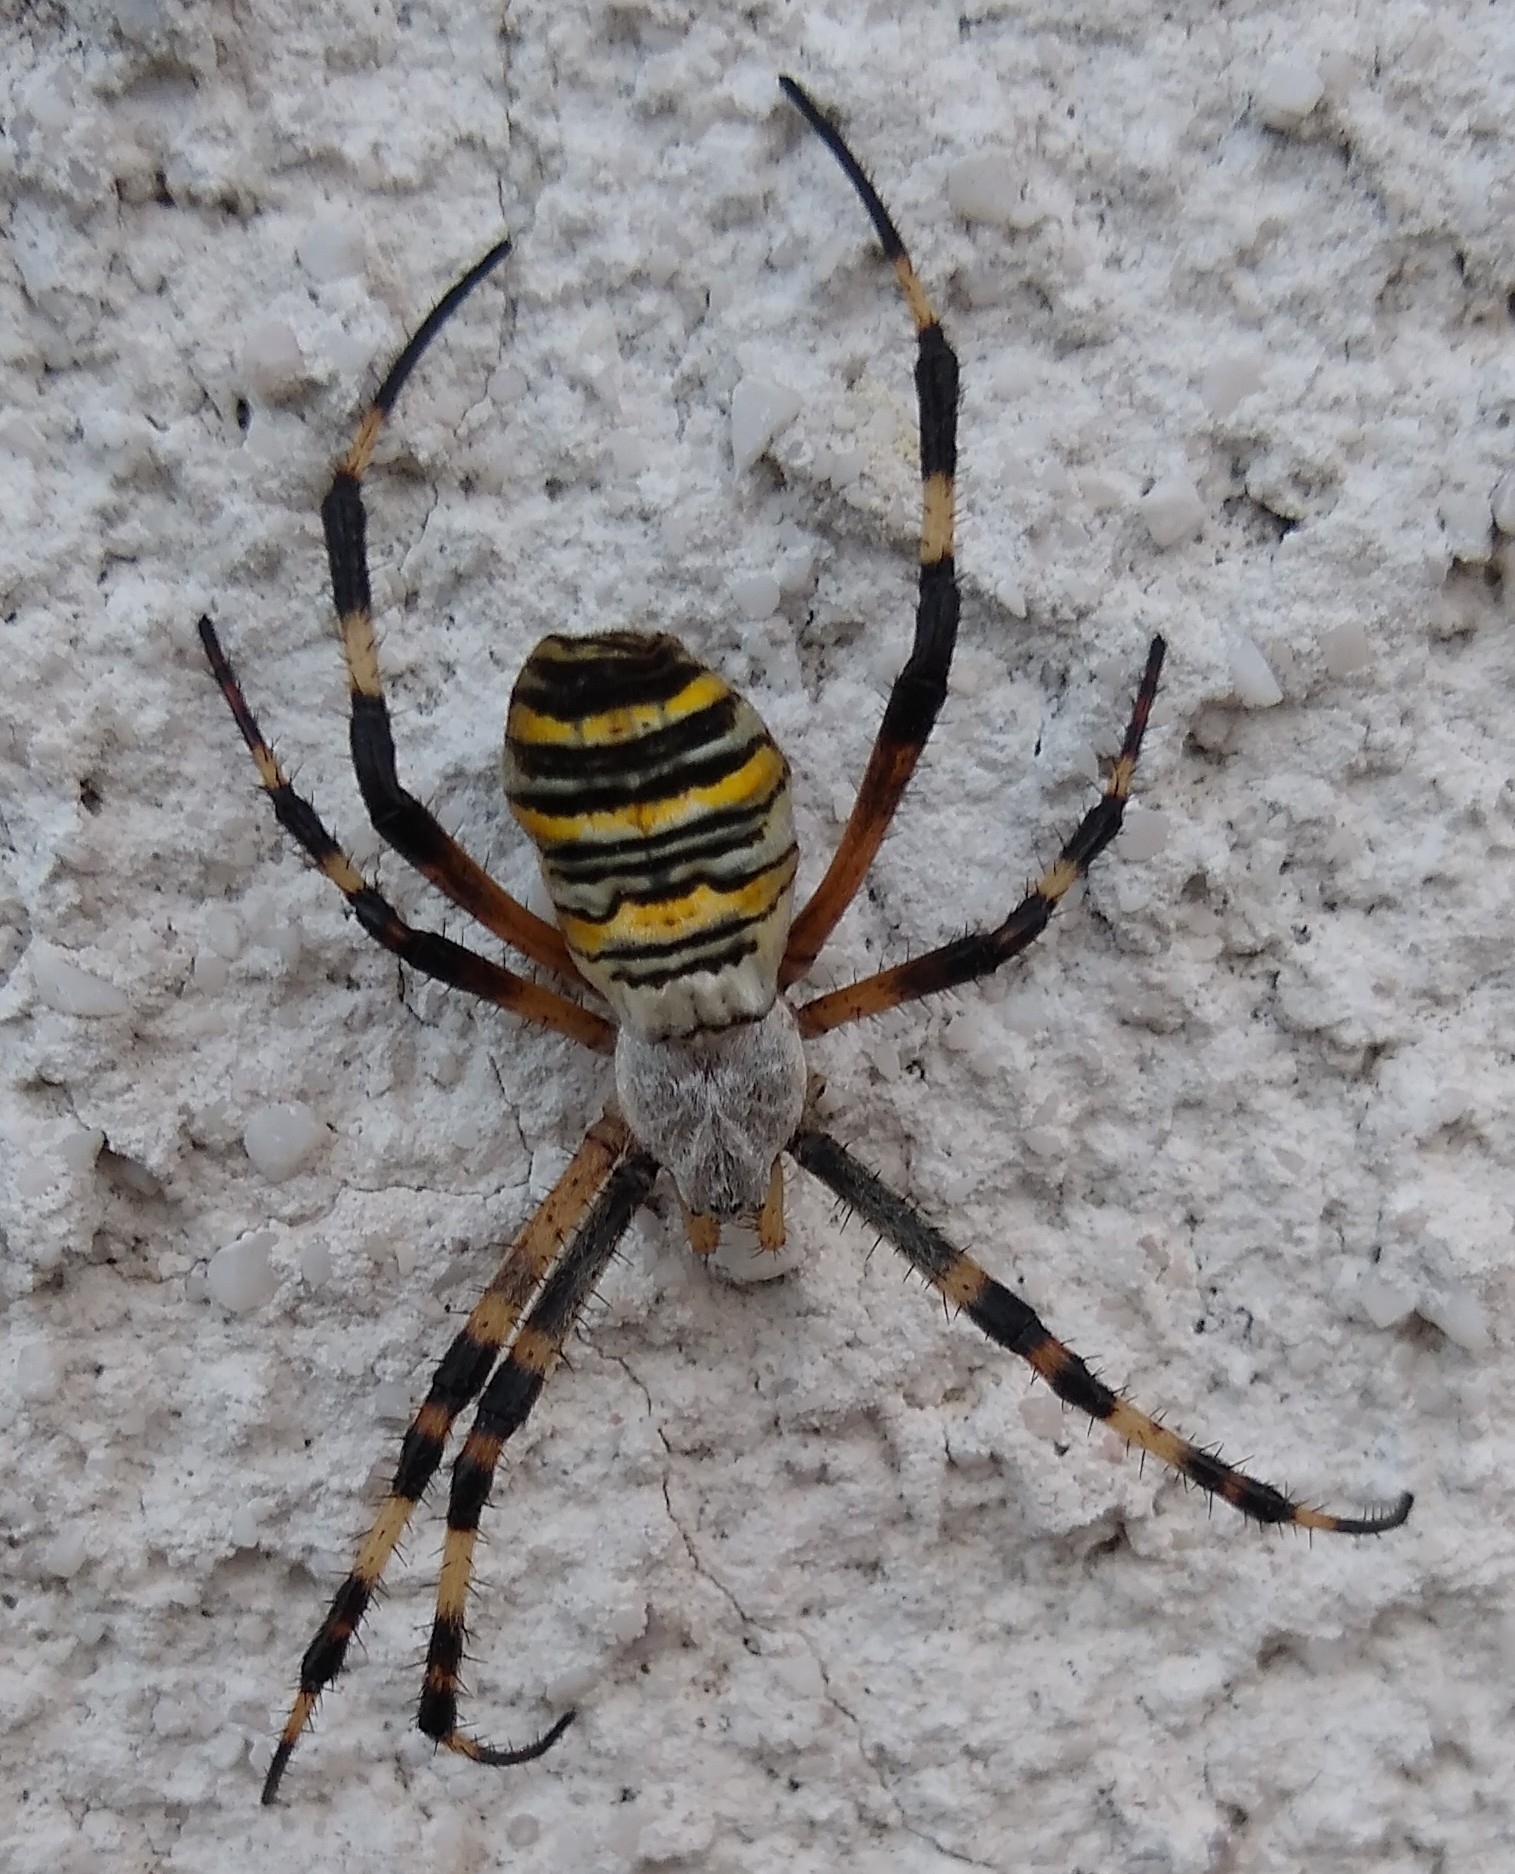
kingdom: Animalia
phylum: Arthropoda
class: Arachnida
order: Araneae
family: Araneidae
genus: Argiope
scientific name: Argiope bruennichi
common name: Wasp spider
